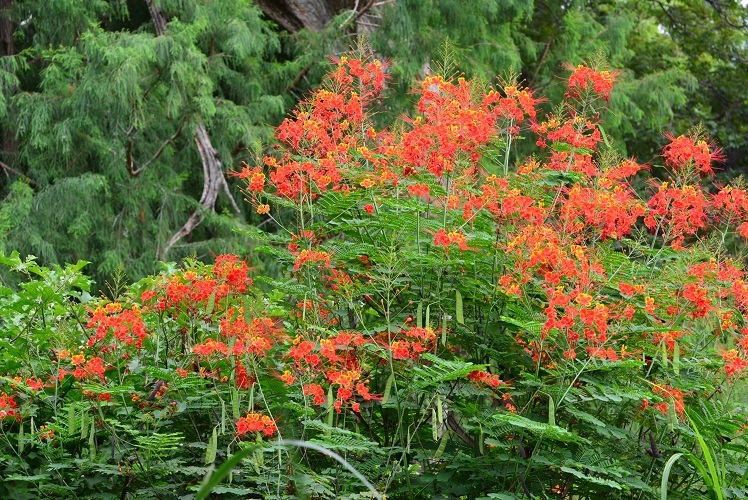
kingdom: Plantae
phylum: Tracheophyta
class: Magnoliopsida
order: Fabales
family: Fabaceae
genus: Caesalpinia
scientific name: Caesalpinia pulcherrima
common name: Pride-of-barbados
